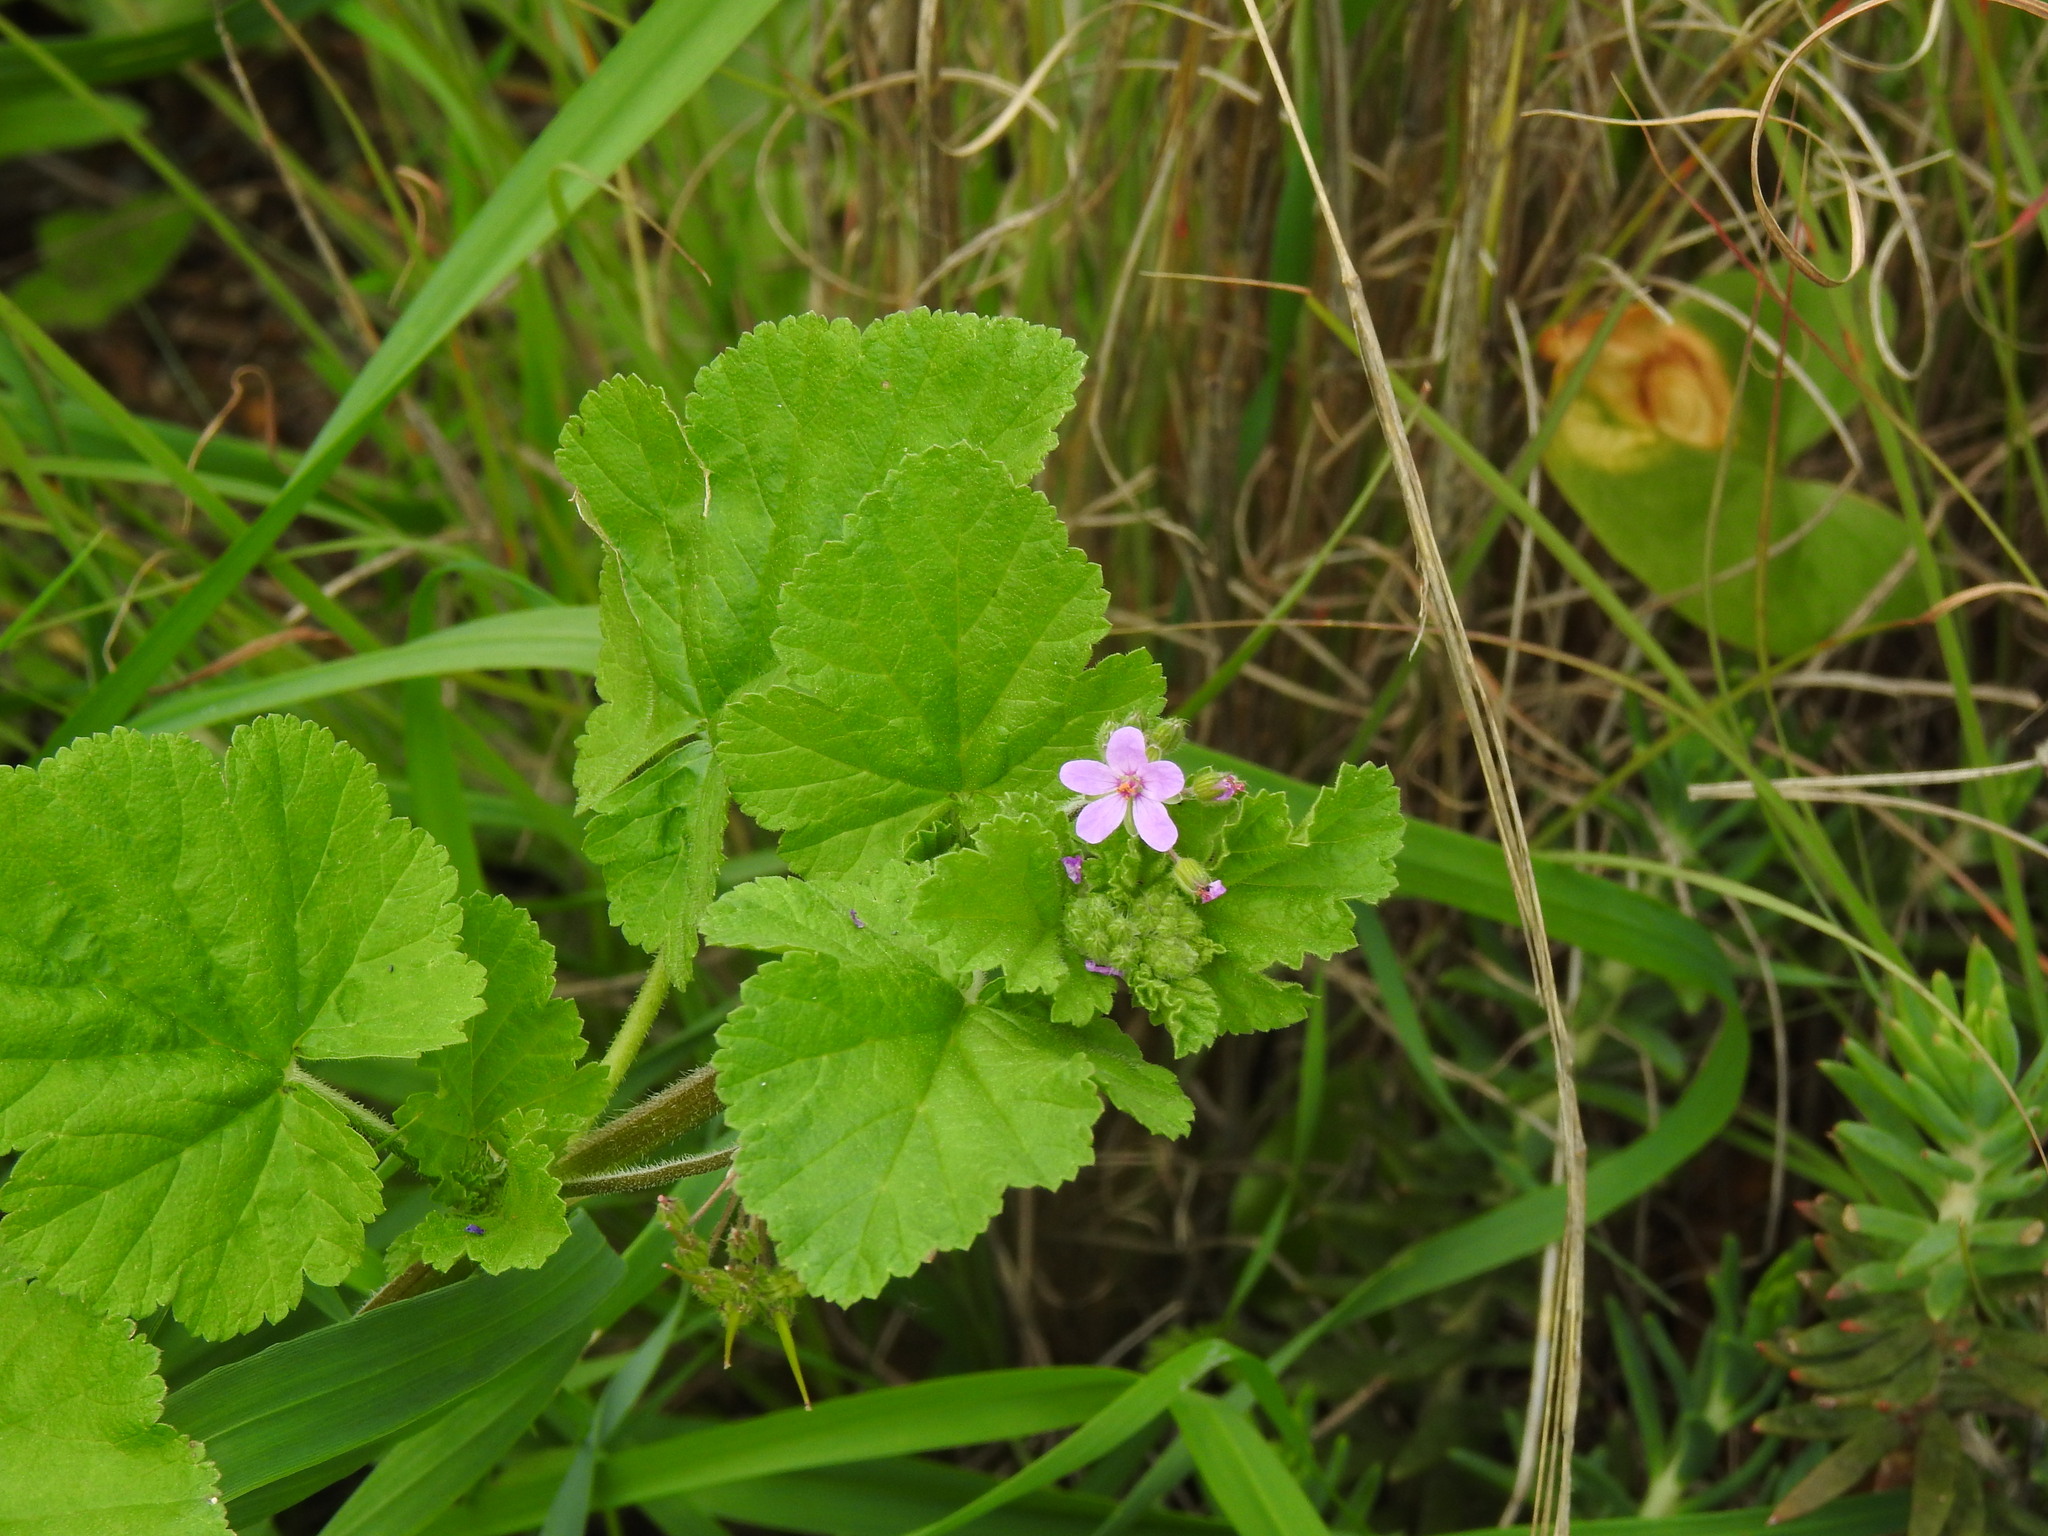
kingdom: Plantae
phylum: Tracheophyta
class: Magnoliopsida
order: Geraniales
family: Geraniaceae
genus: Erodium
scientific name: Erodium malacoides
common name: Soft stork's-bill
